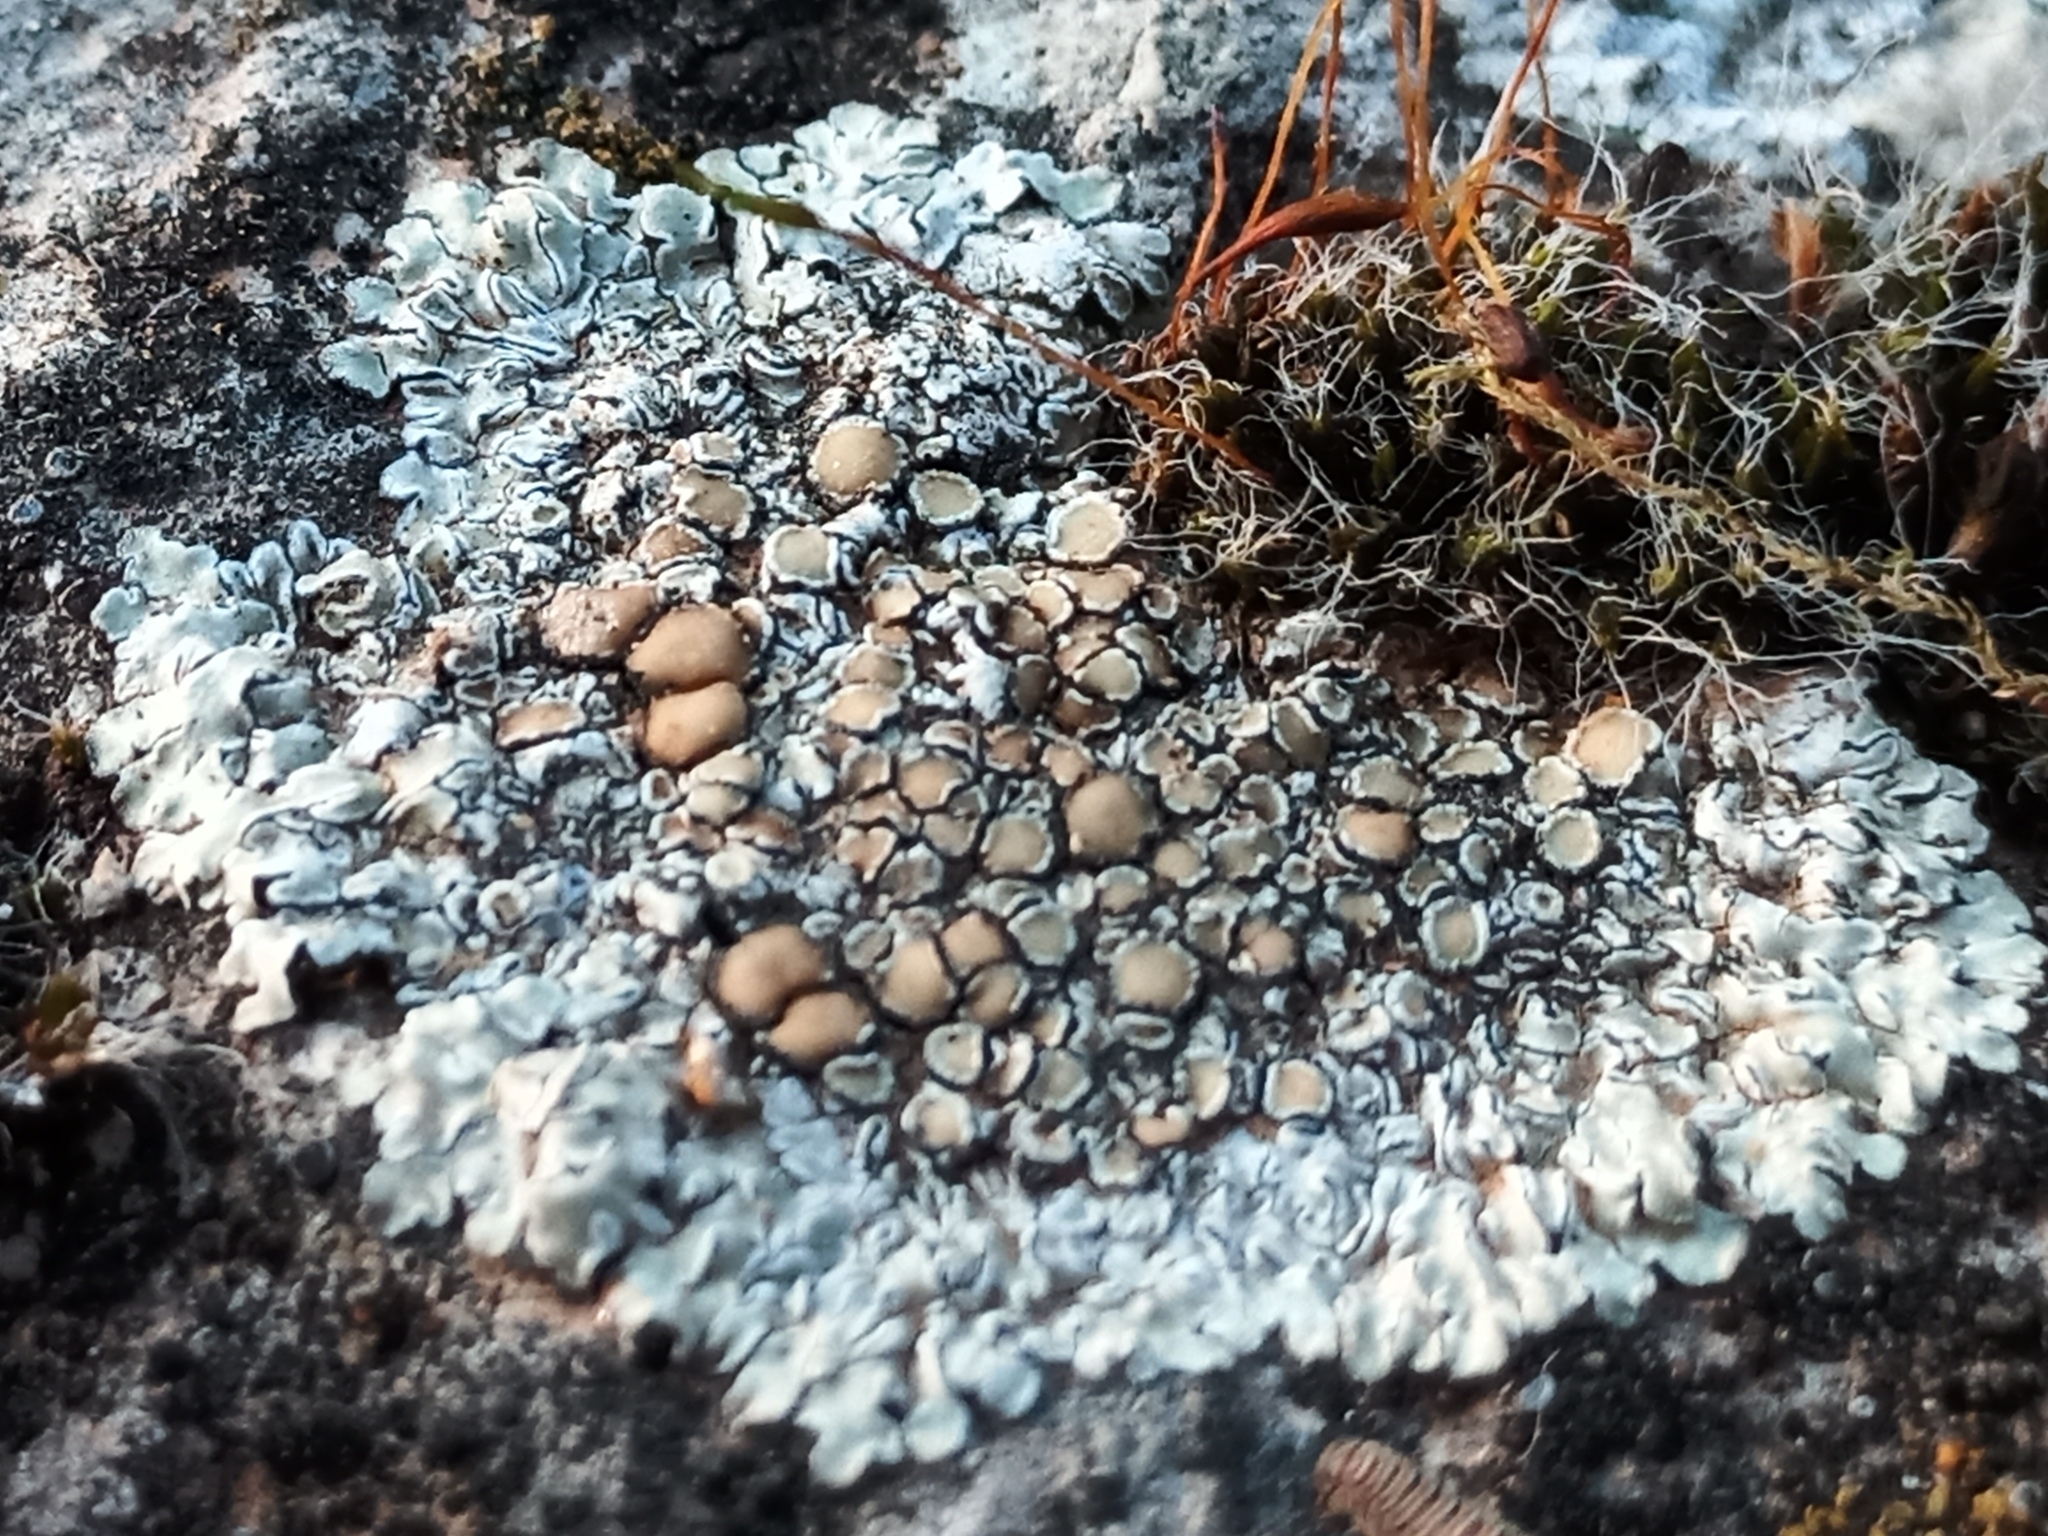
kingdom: Fungi
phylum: Ascomycota
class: Lecanoromycetes
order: Lecanorales
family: Lecanoraceae
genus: Protoparmeliopsis
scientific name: Protoparmeliopsis muralis
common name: Stonewall rim lichen
